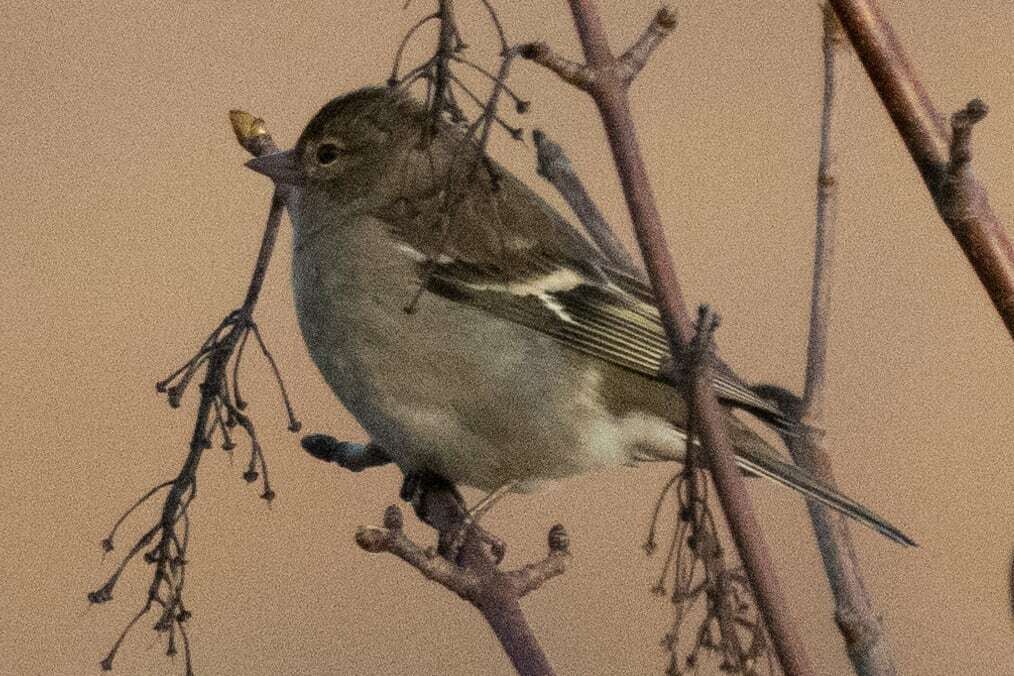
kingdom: Animalia
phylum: Chordata
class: Aves
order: Passeriformes
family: Fringillidae
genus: Fringilla
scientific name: Fringilla coelebs
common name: Common chaffinch
